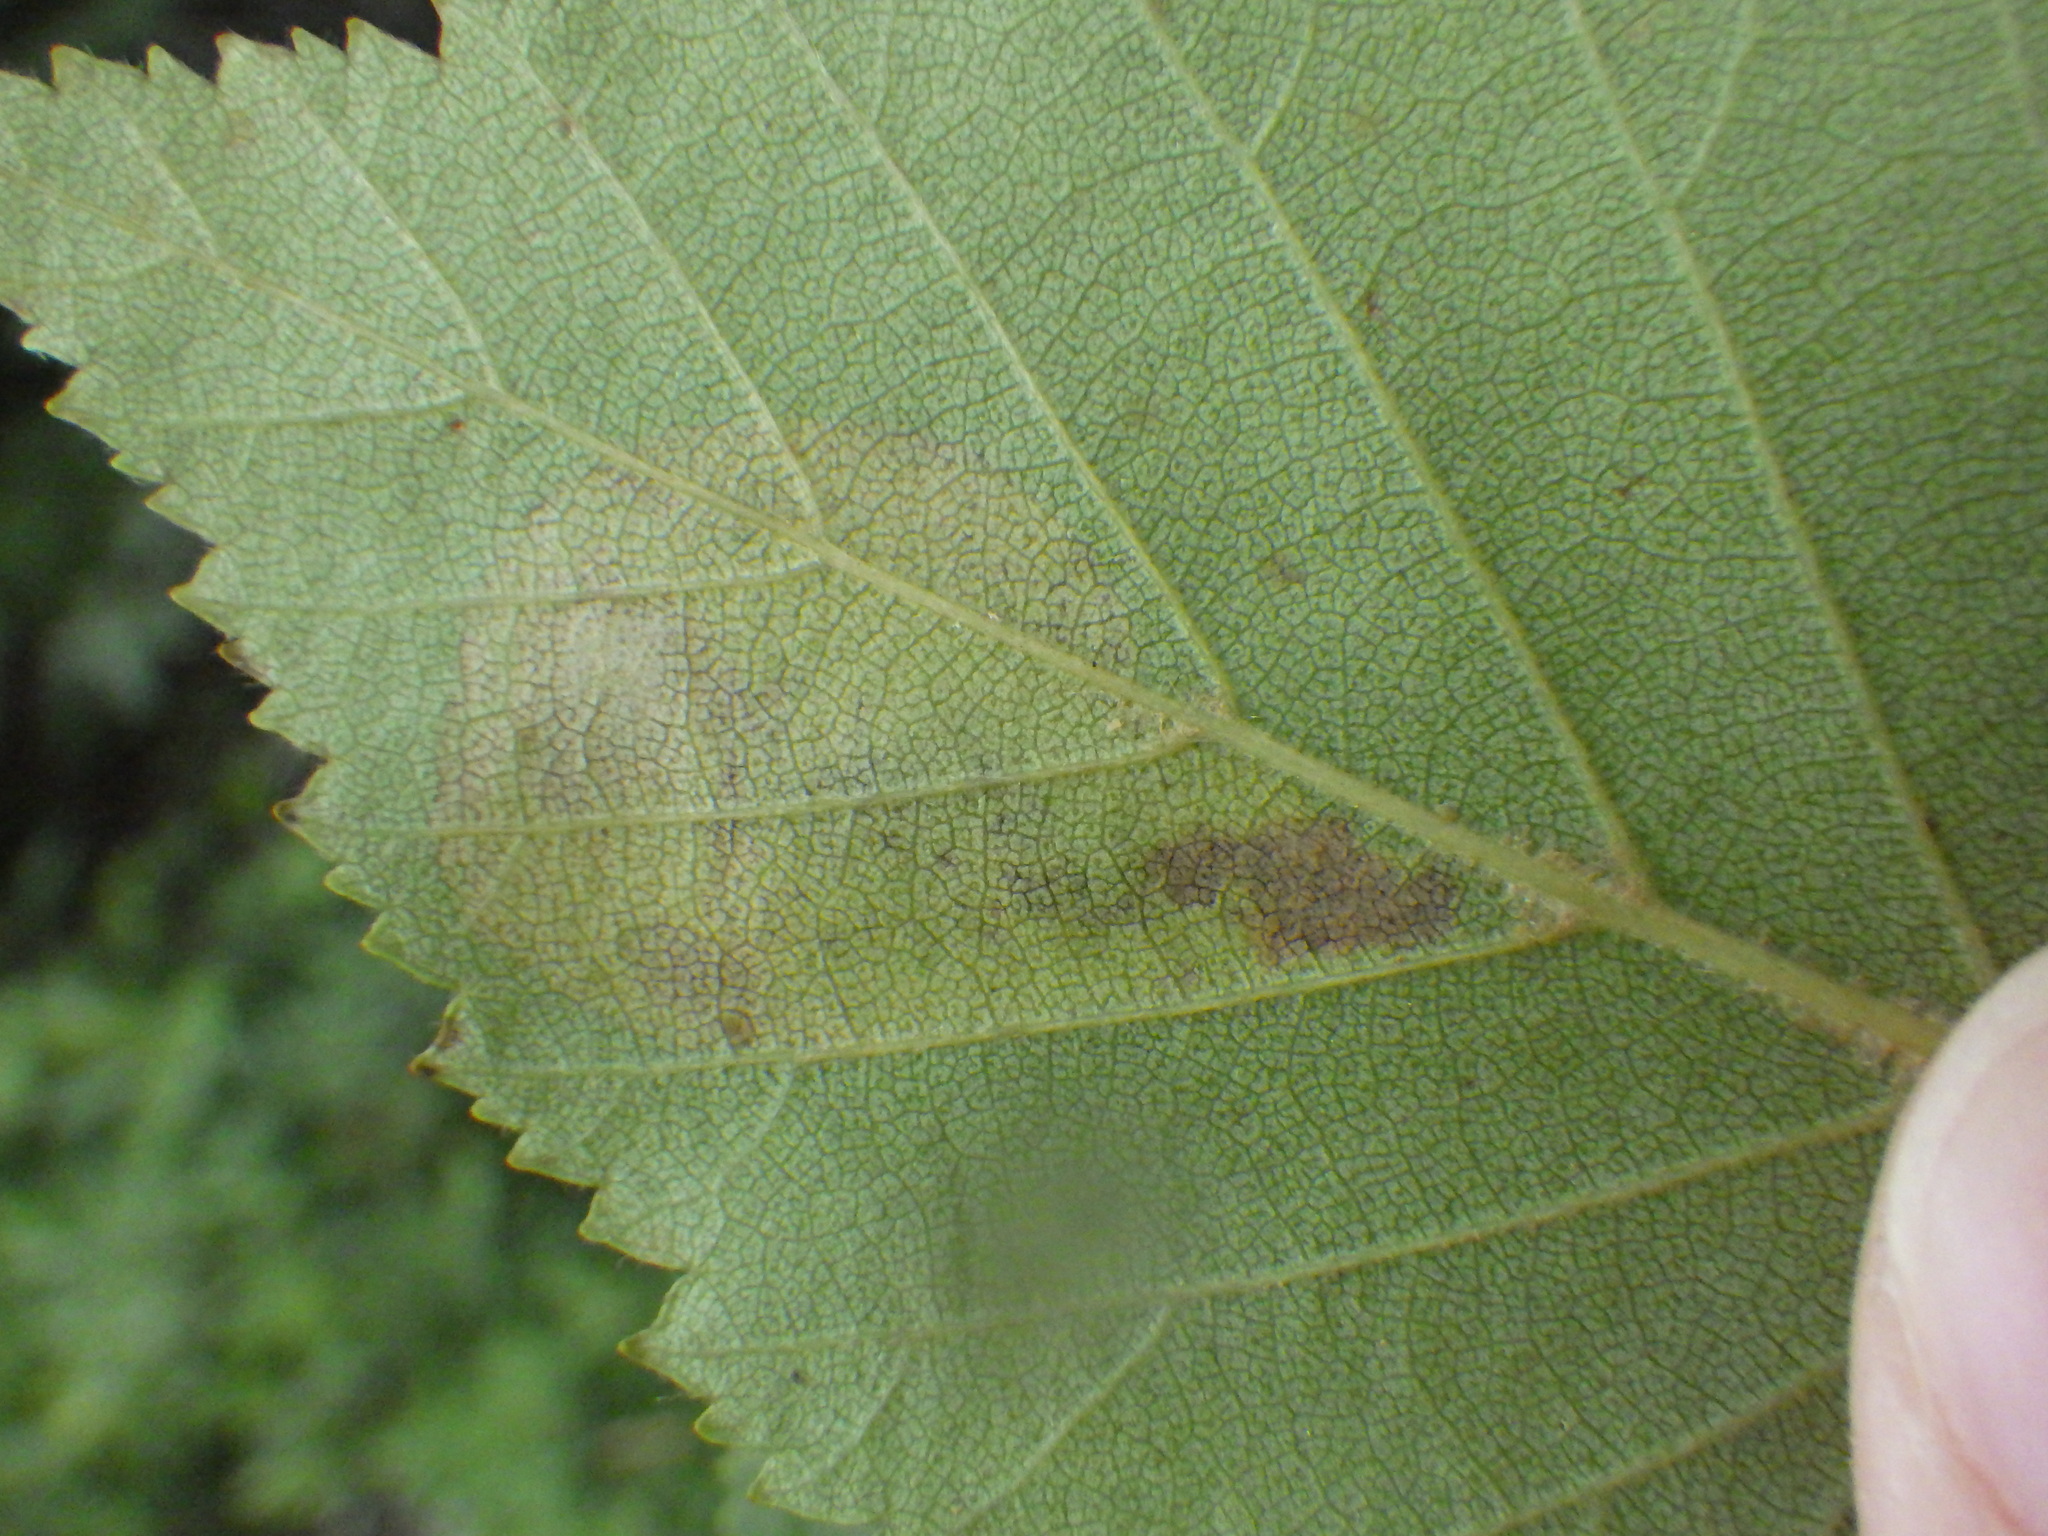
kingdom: Animalia
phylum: Arthropoda
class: Insecta
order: Hymenoptera
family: Tenthredinidae
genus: Profenusa
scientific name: Profenusa thomsoni
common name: Amber-marked birch leafminer
